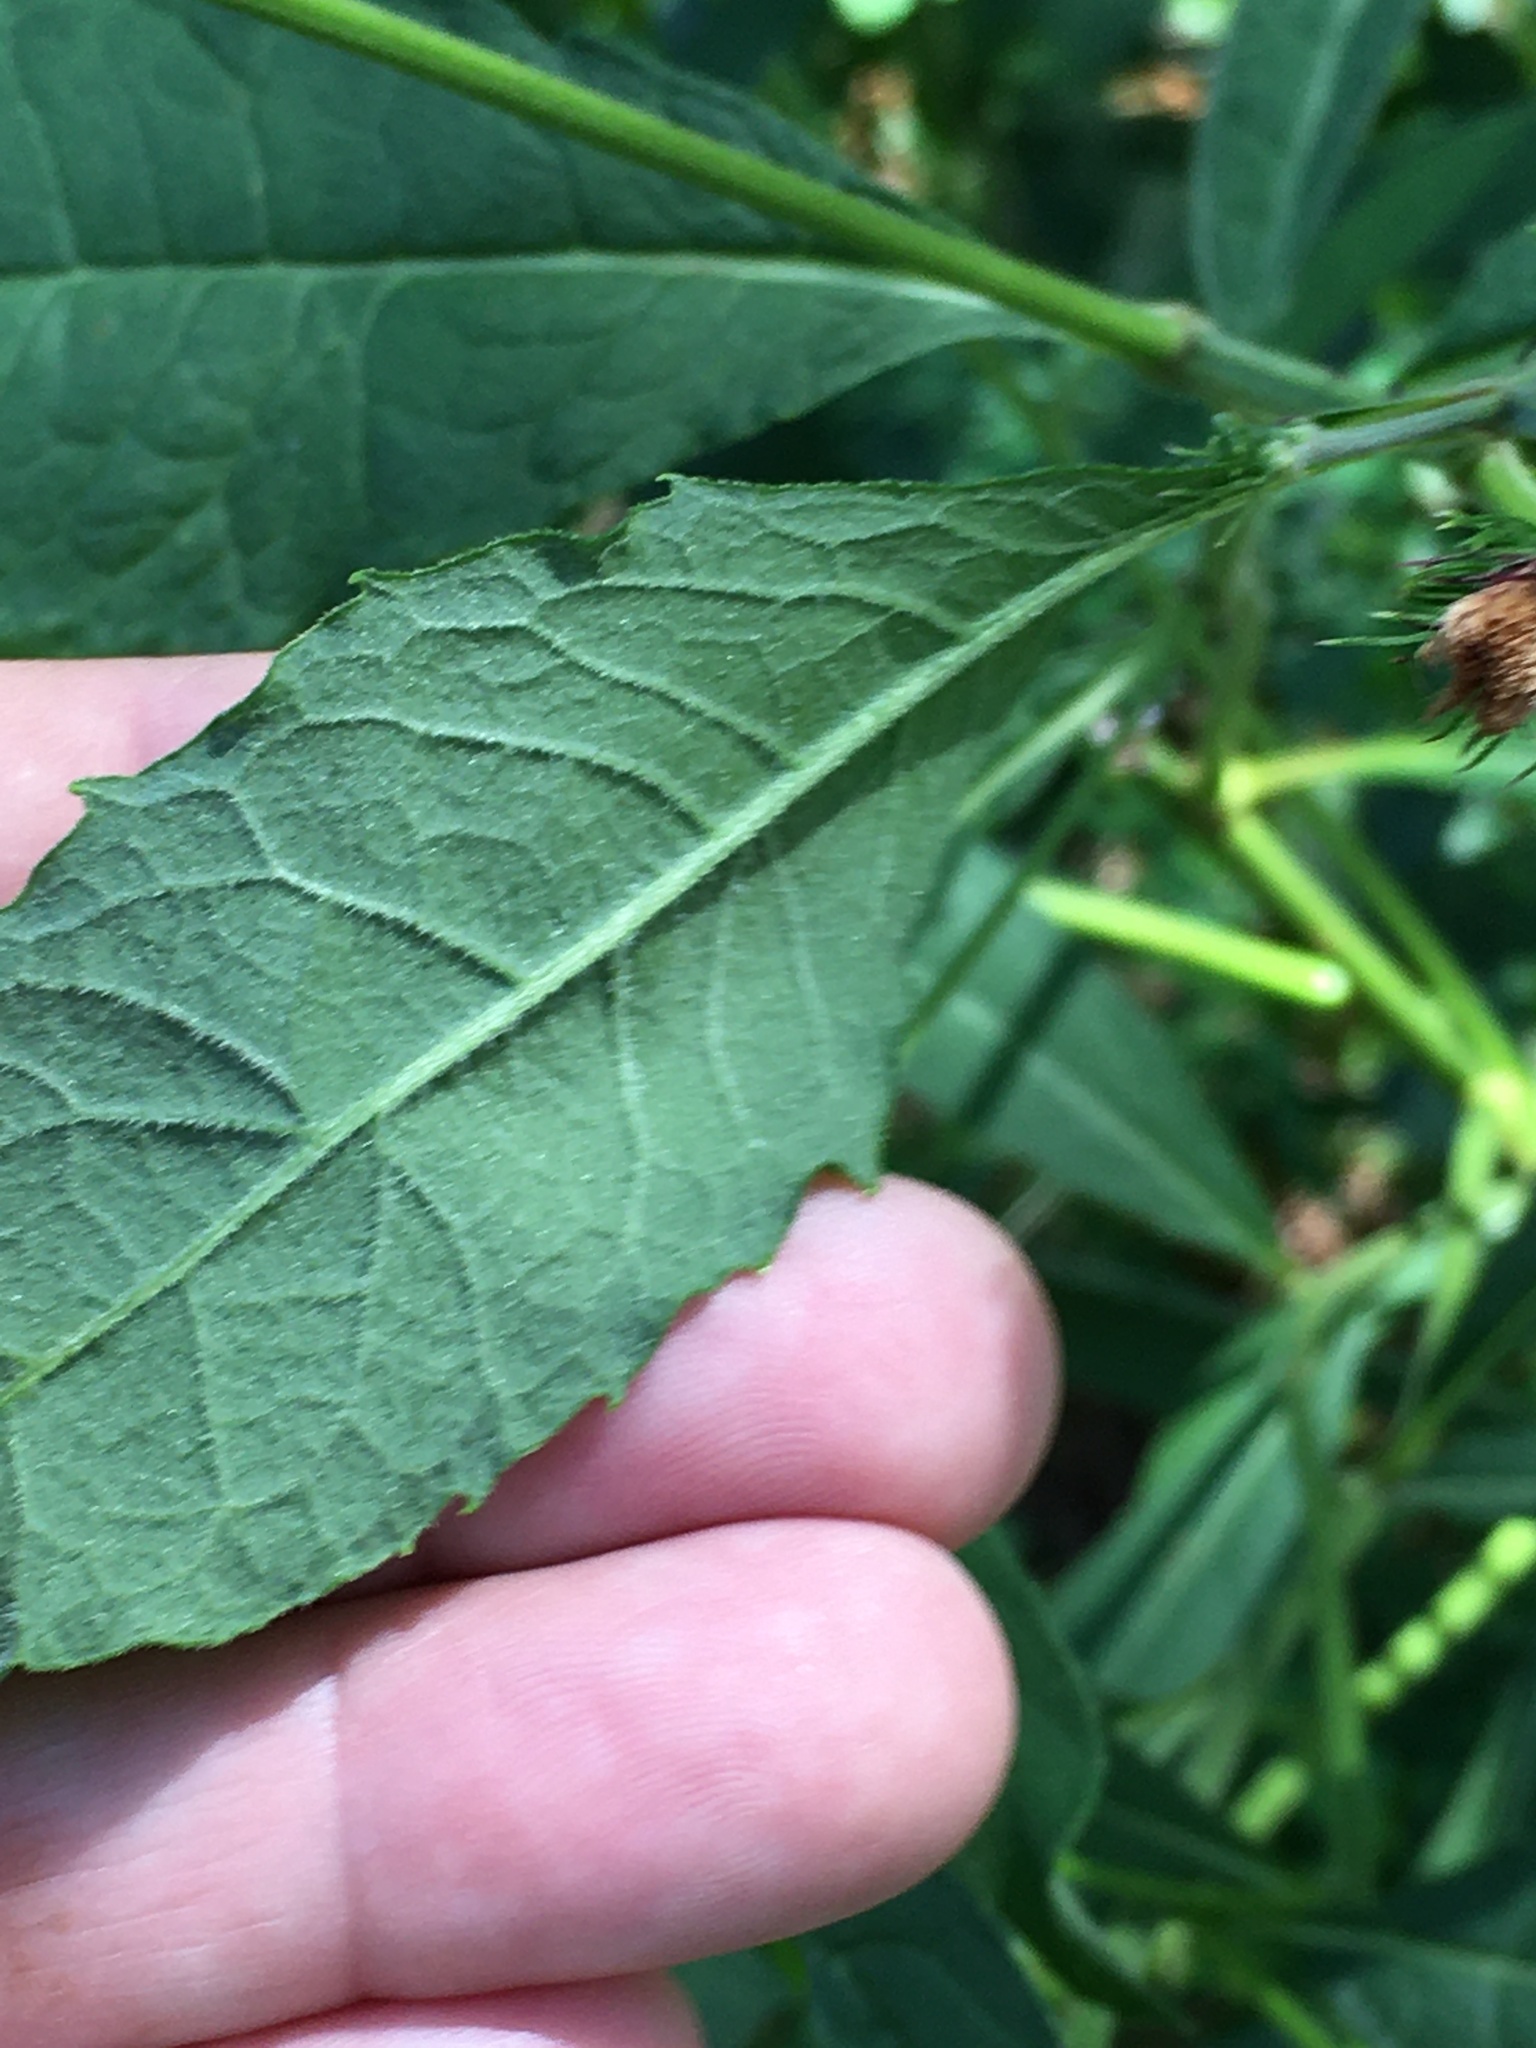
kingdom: Plantae
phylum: Tracheophyta
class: Magnoliopsida
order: Asterales
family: Asteraceae
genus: Vernonia
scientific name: Vernonia noveboracensis
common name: New york ironweed
